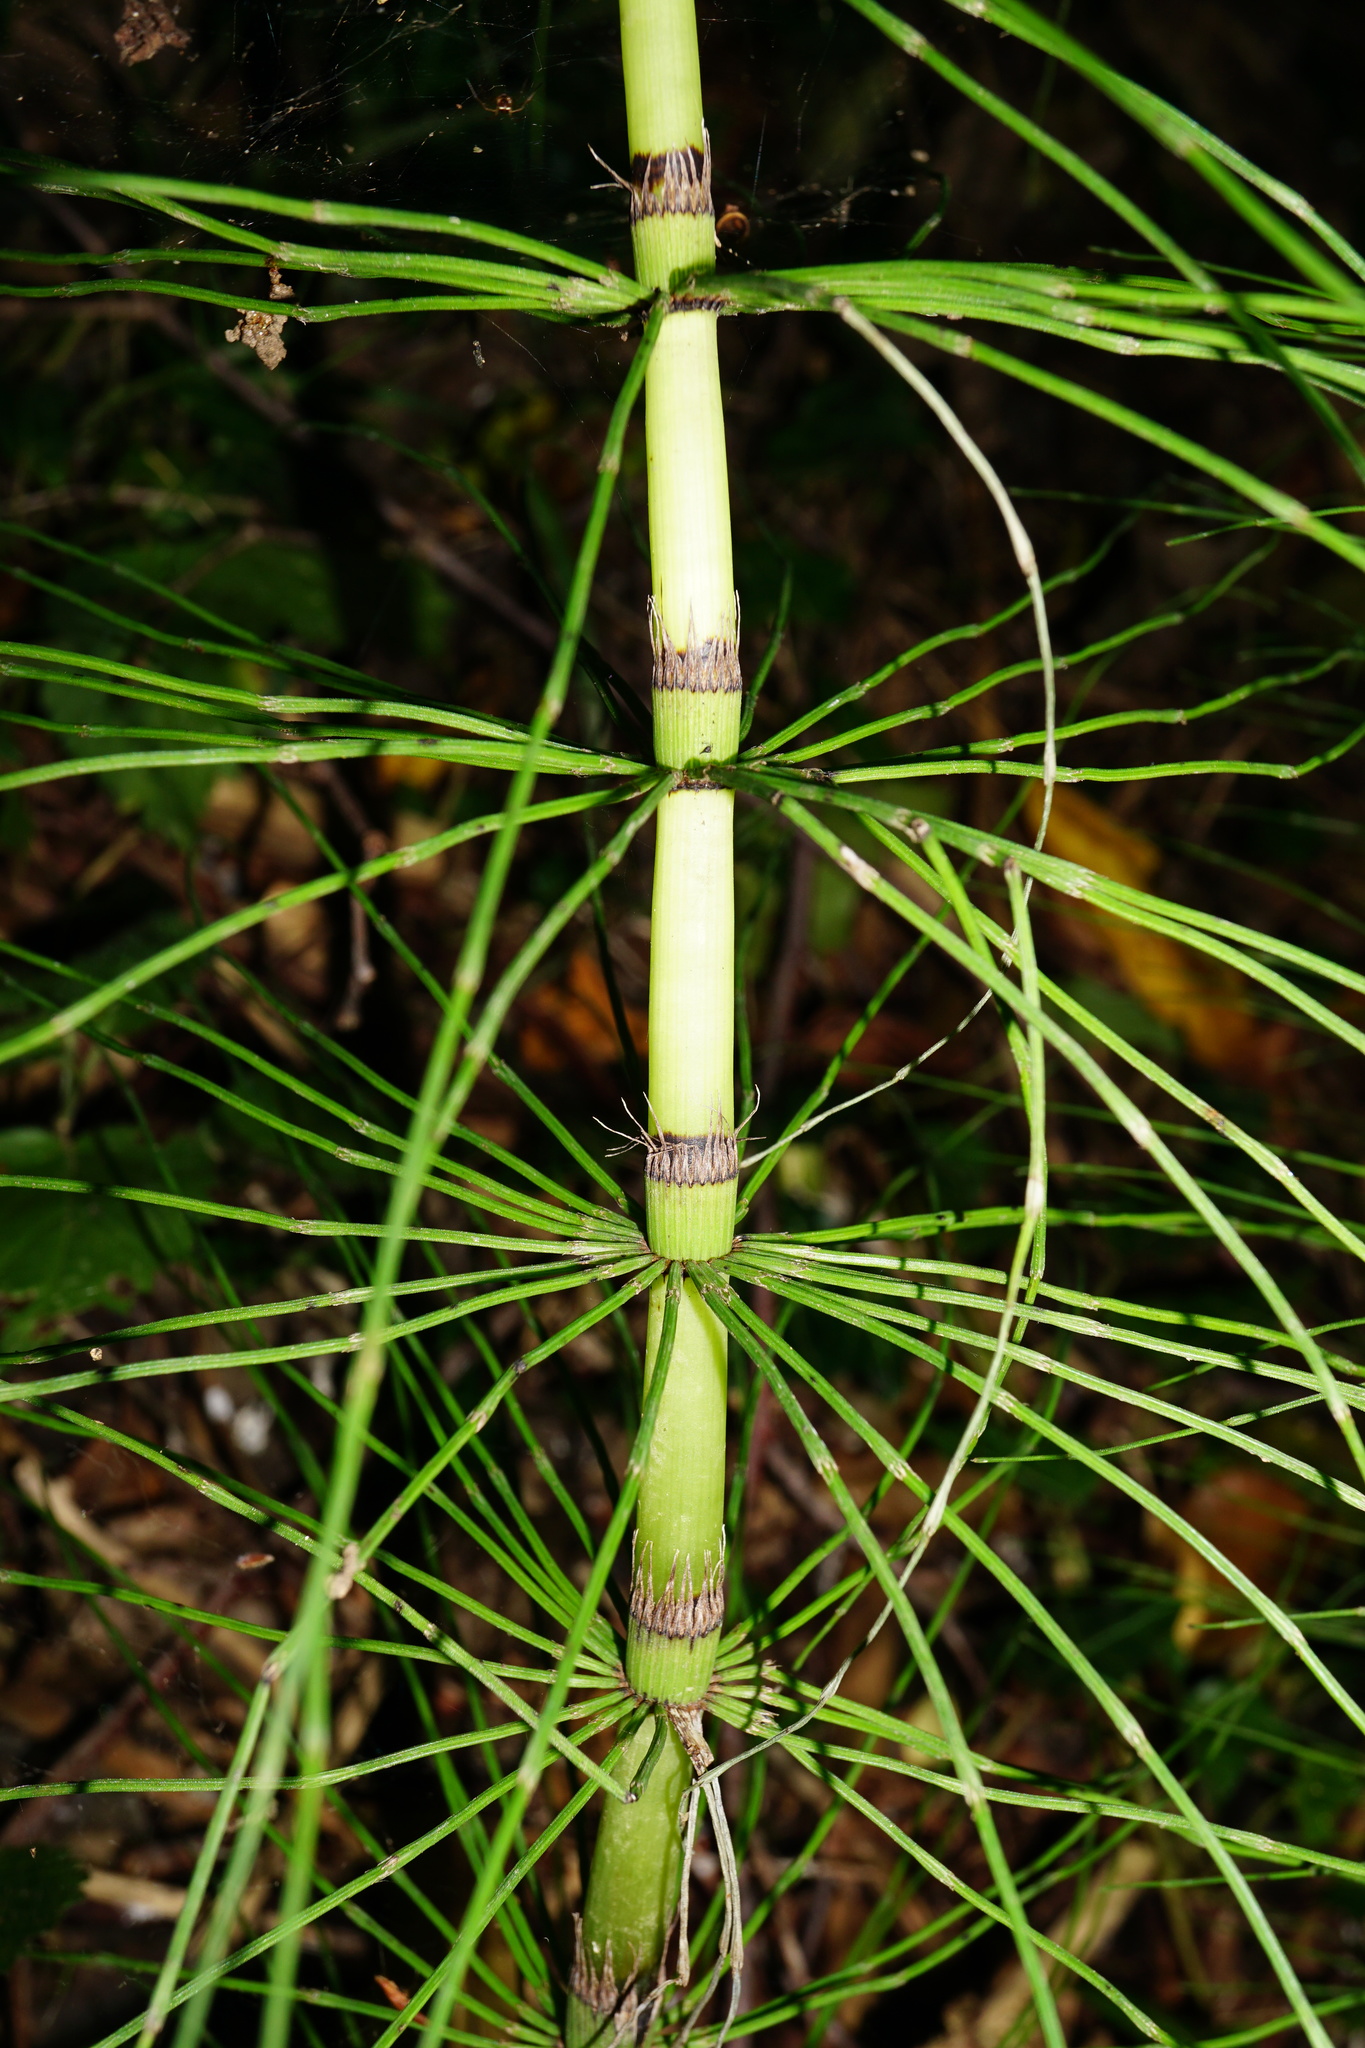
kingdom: Plantae
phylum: Tracheophyta
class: Polypodiopsida
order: Equisetales
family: Equisetaceae
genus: Equisetum
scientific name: Equisetum telmateia
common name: Great horsetail
